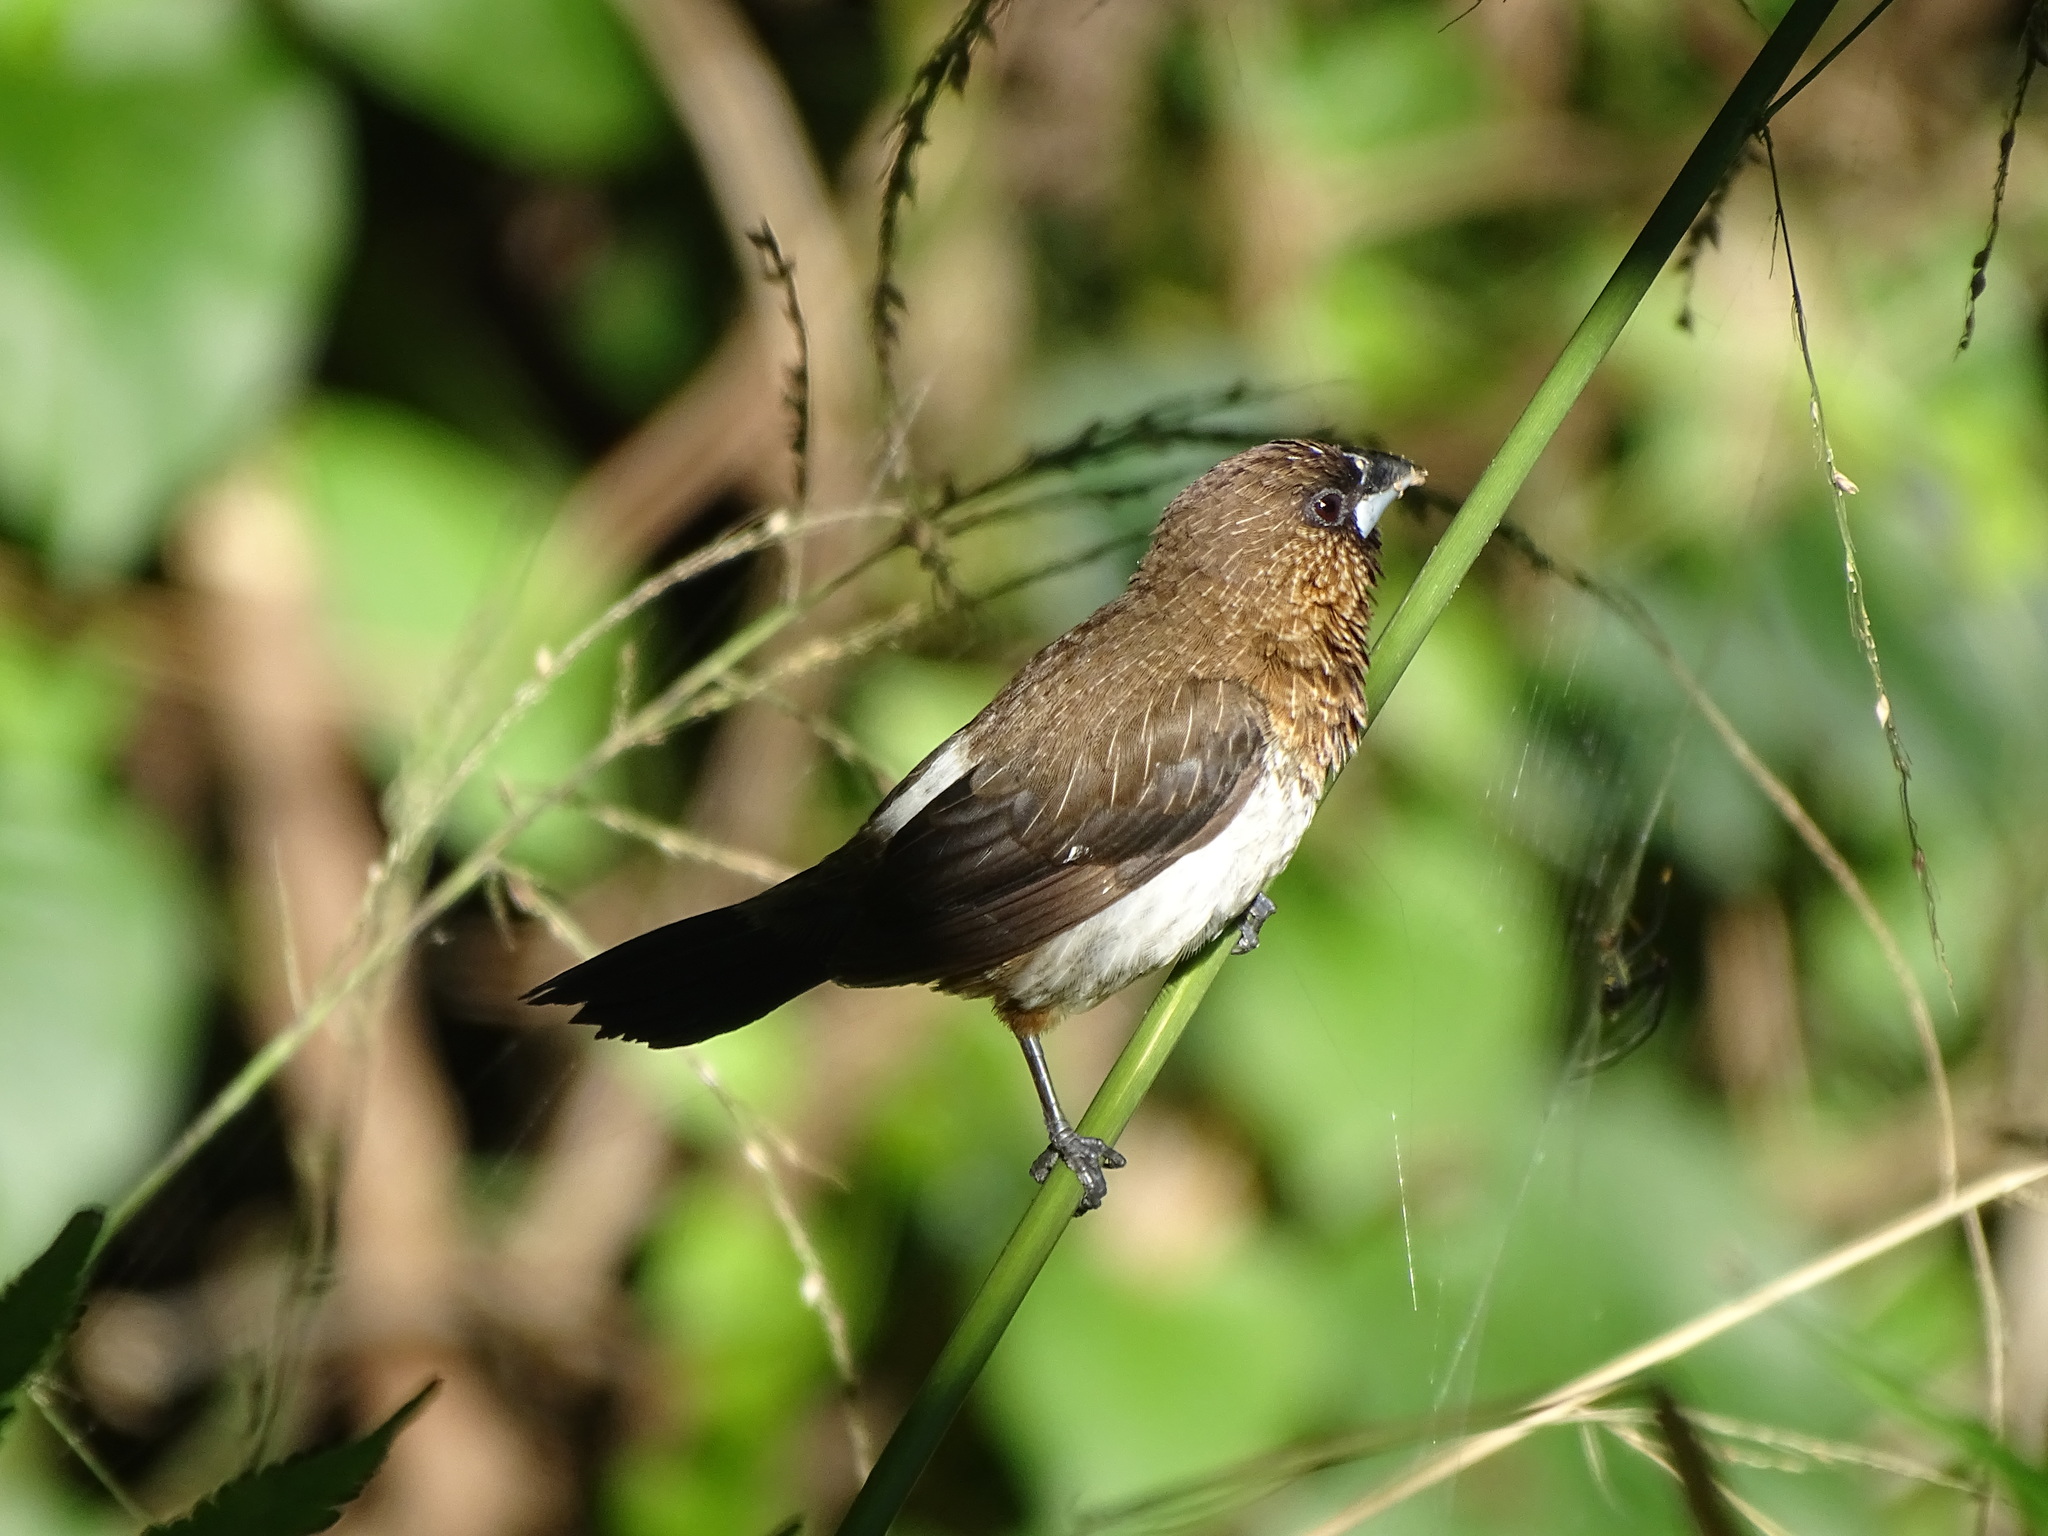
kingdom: Animalia
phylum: Chordata
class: Aves
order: Passeriformes
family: Estrildidae
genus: Lonchura
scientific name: Lonchura striata
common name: White-rumped munia
